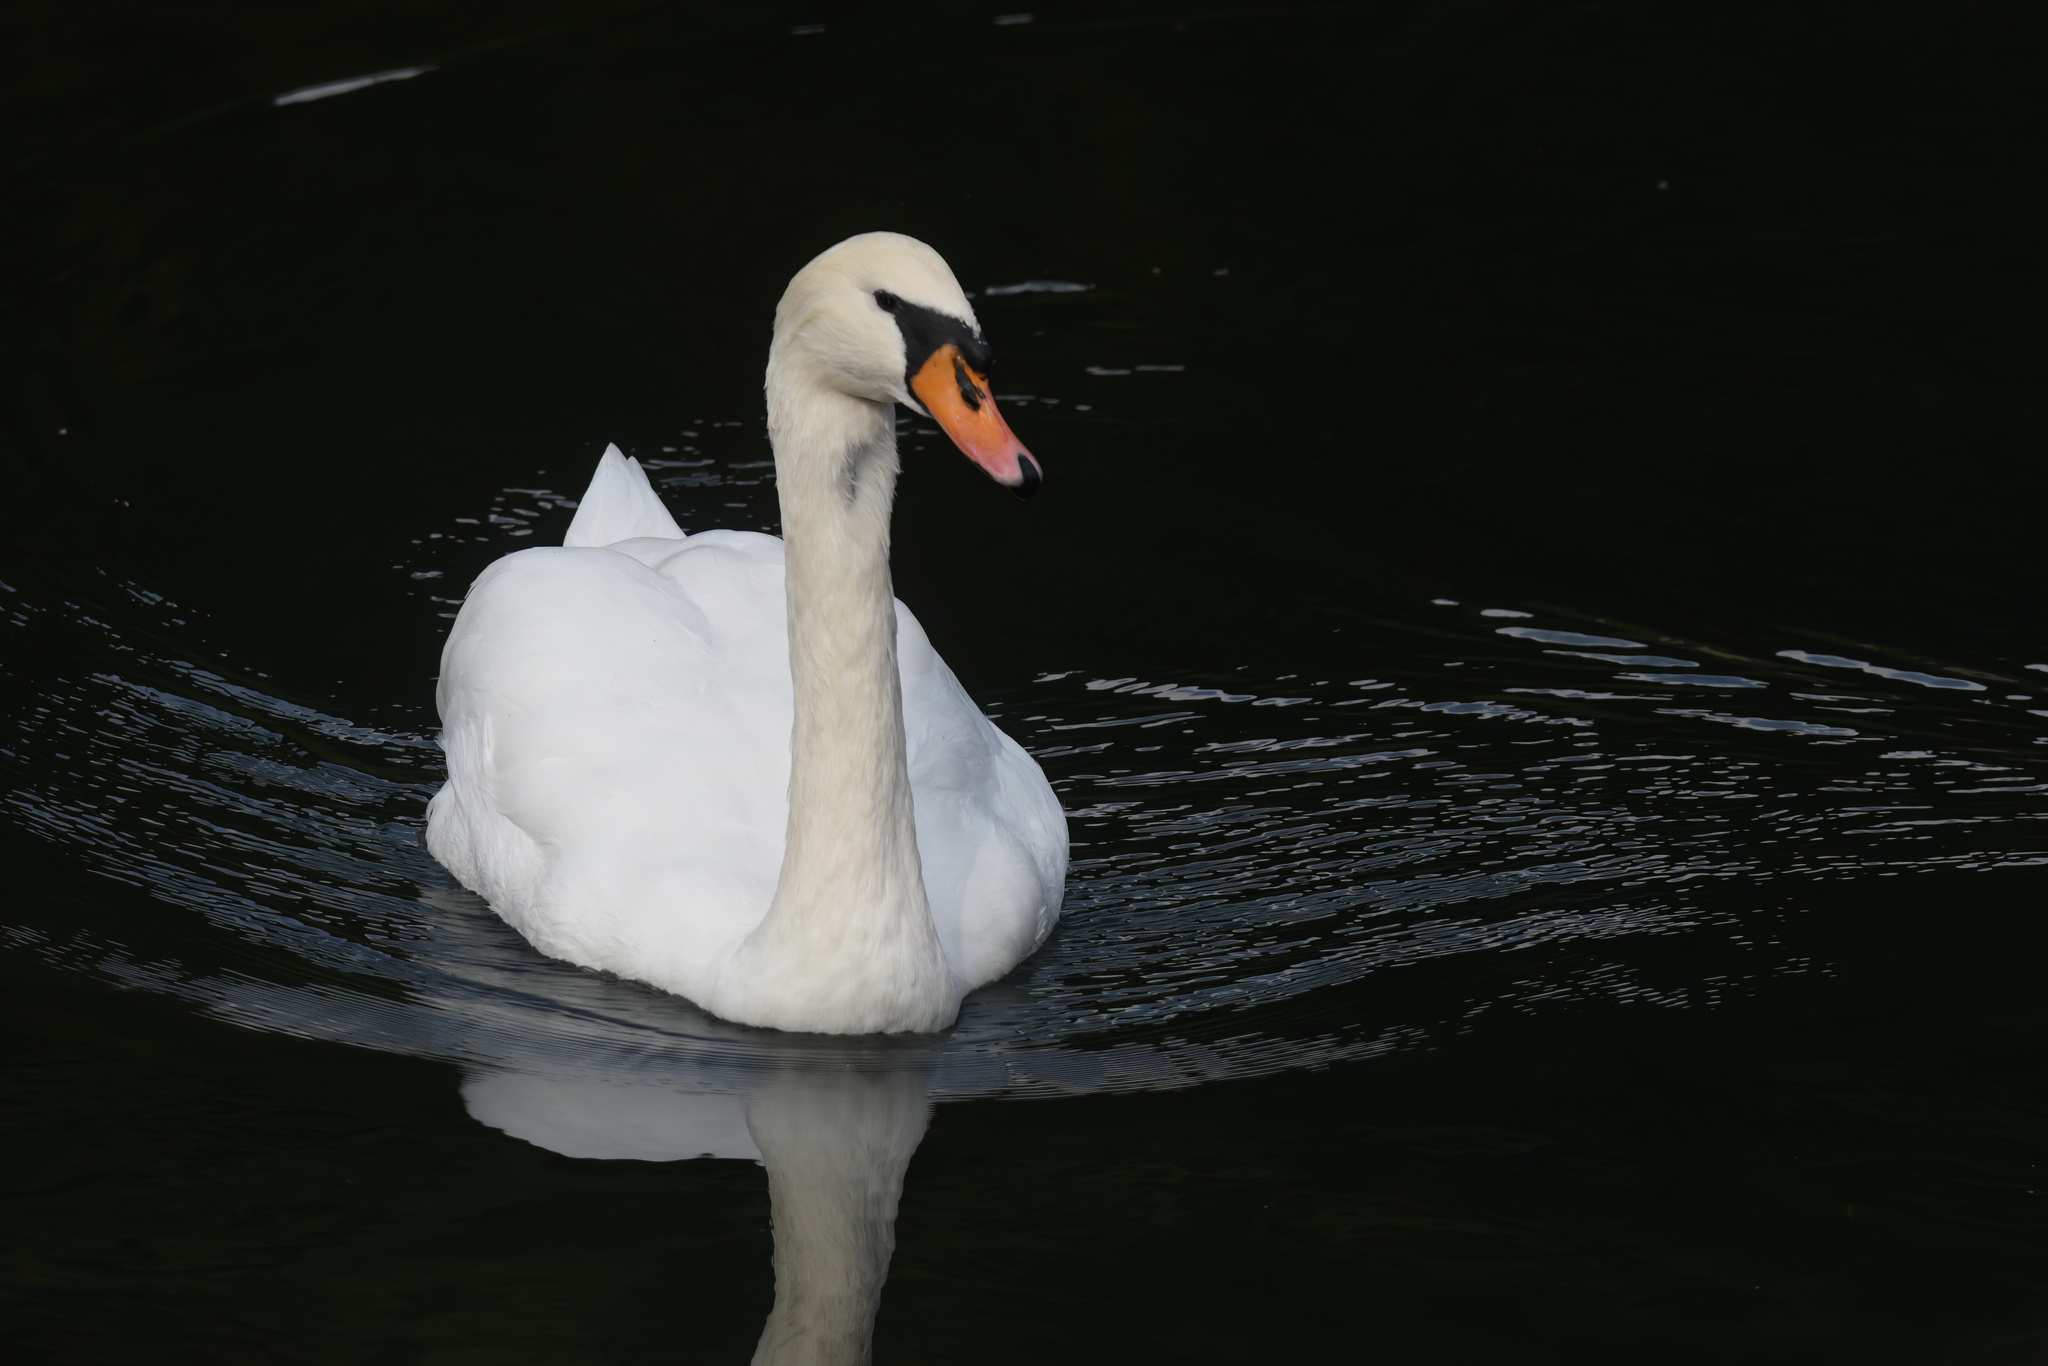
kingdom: Animalia
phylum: Chordata
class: Aves
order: Anseriformes
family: Anatidae
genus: Cygnus
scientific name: Cygnus olor
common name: Mute swan
